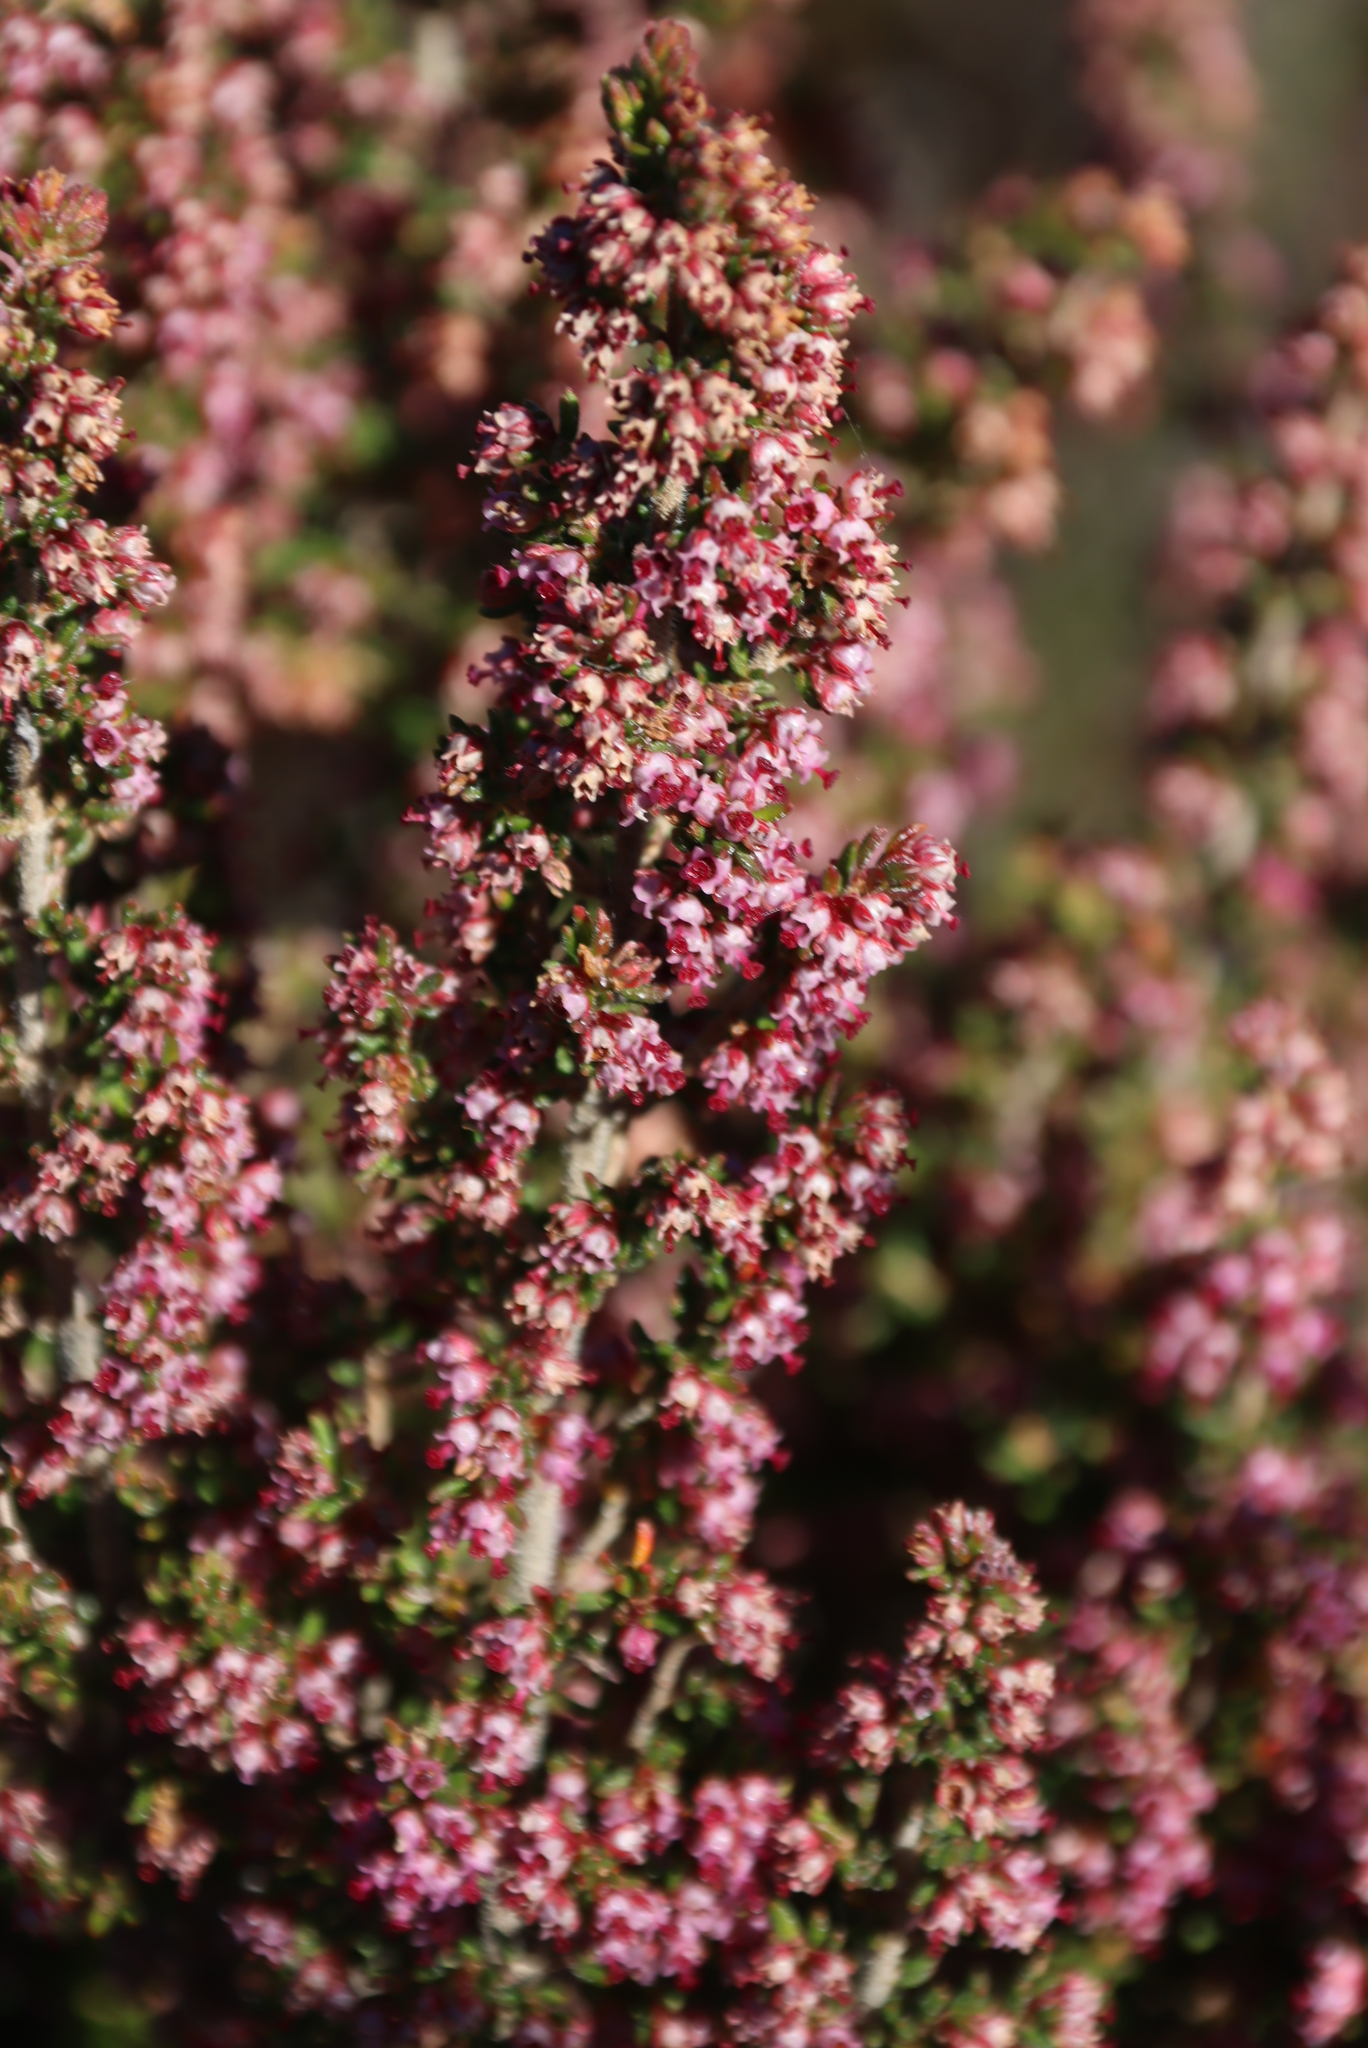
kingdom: Plantae
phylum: Tracheophyta
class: Magnoliopsida
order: Ericales
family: Ericaceae
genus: Erica
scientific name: Erica hispidula
